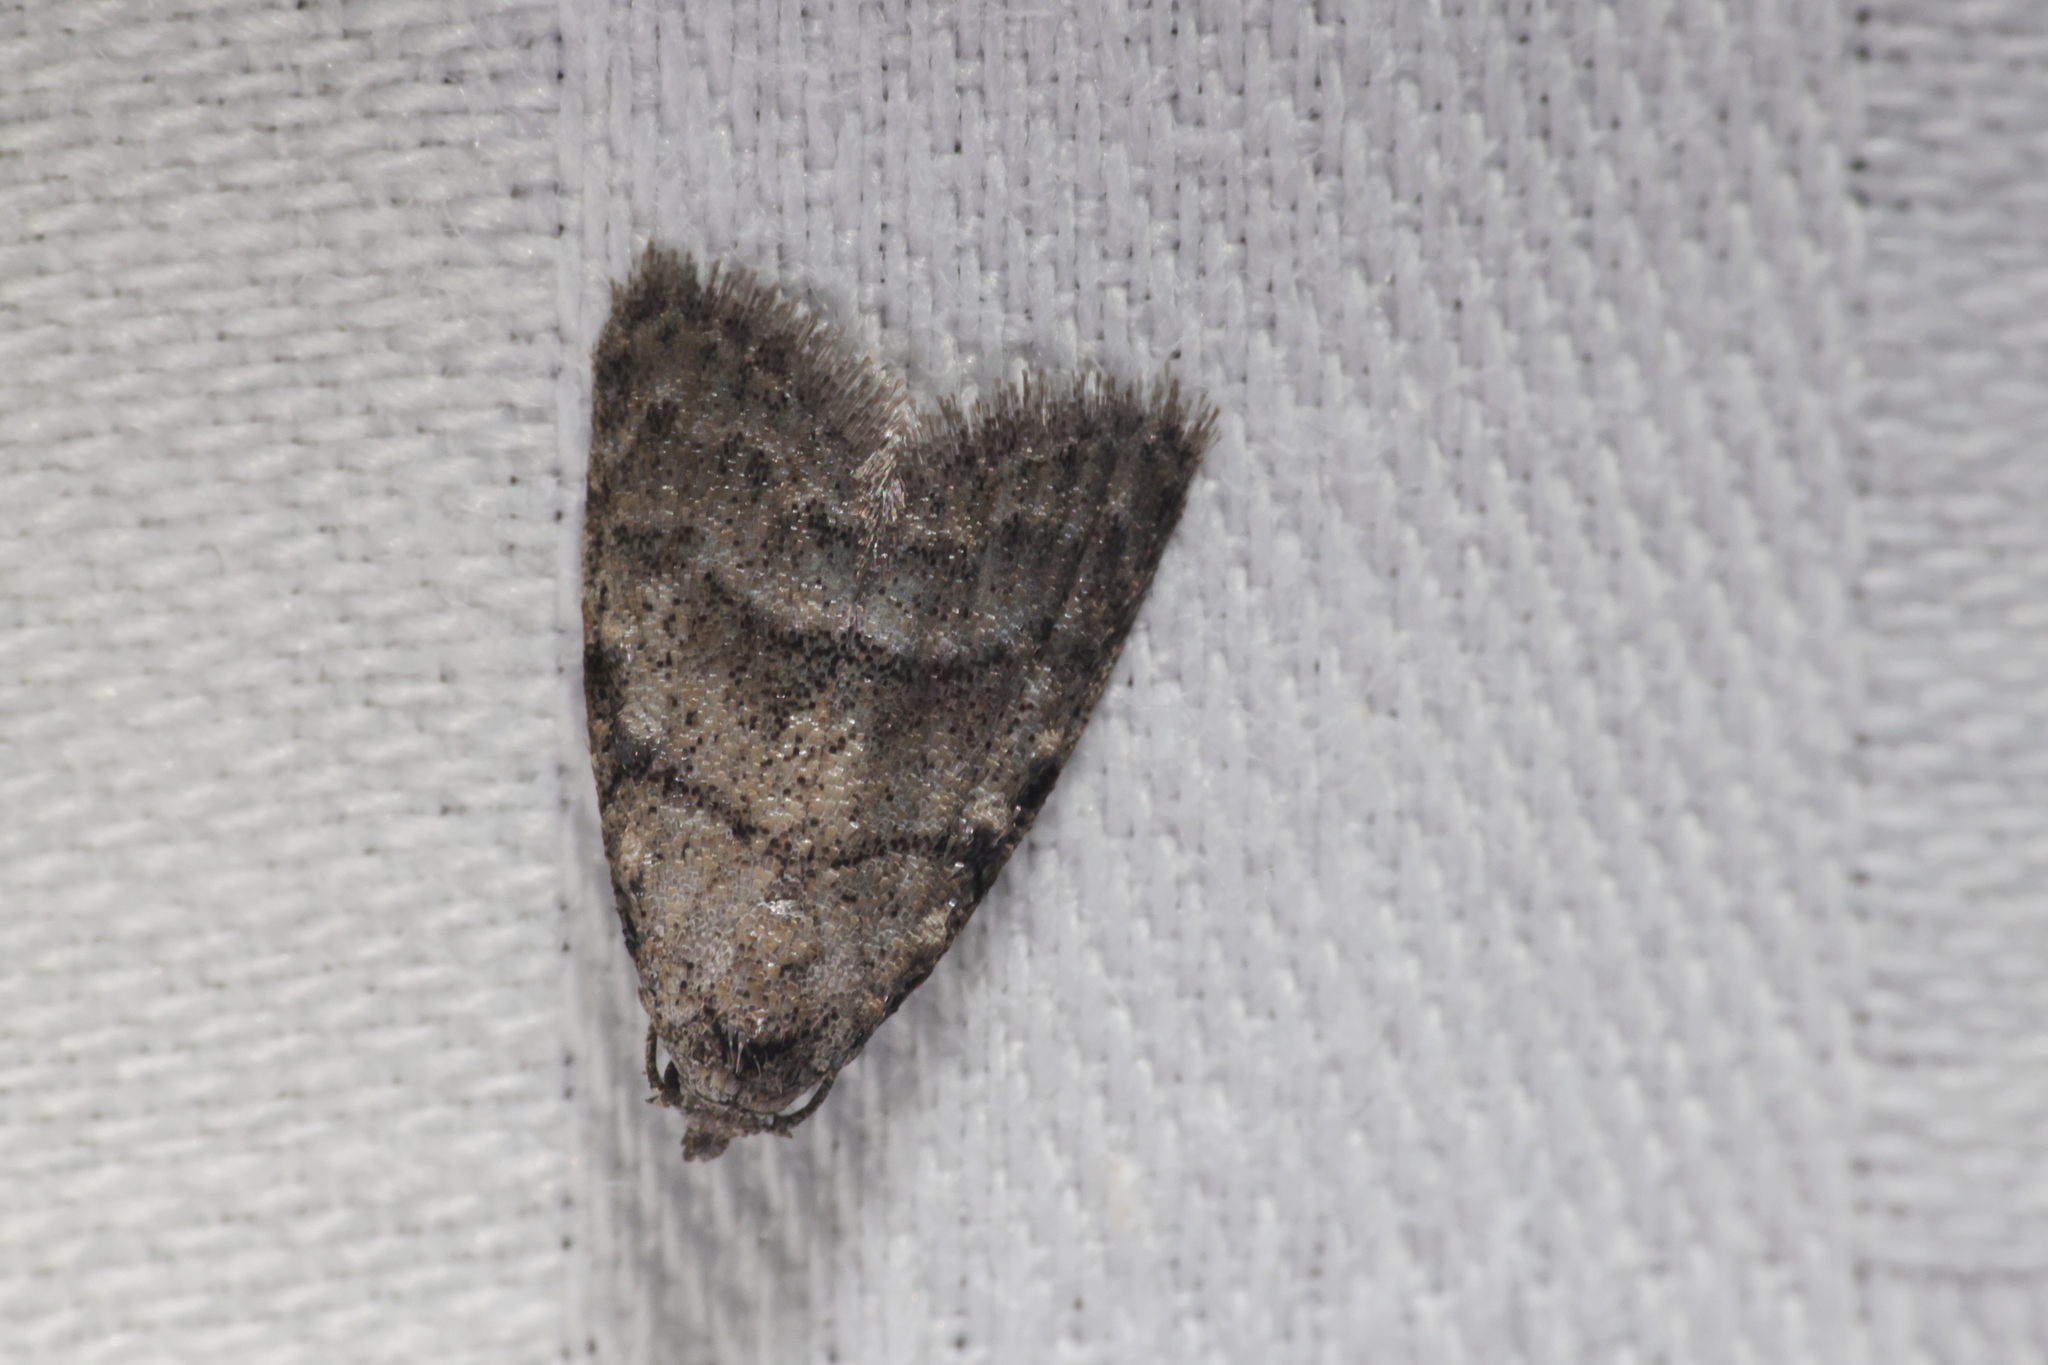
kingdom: Animalia
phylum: Arthropoda
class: Insecta
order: Lepidoptera
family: Nolidae
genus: Inouenola
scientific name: Inouenola pallescens
